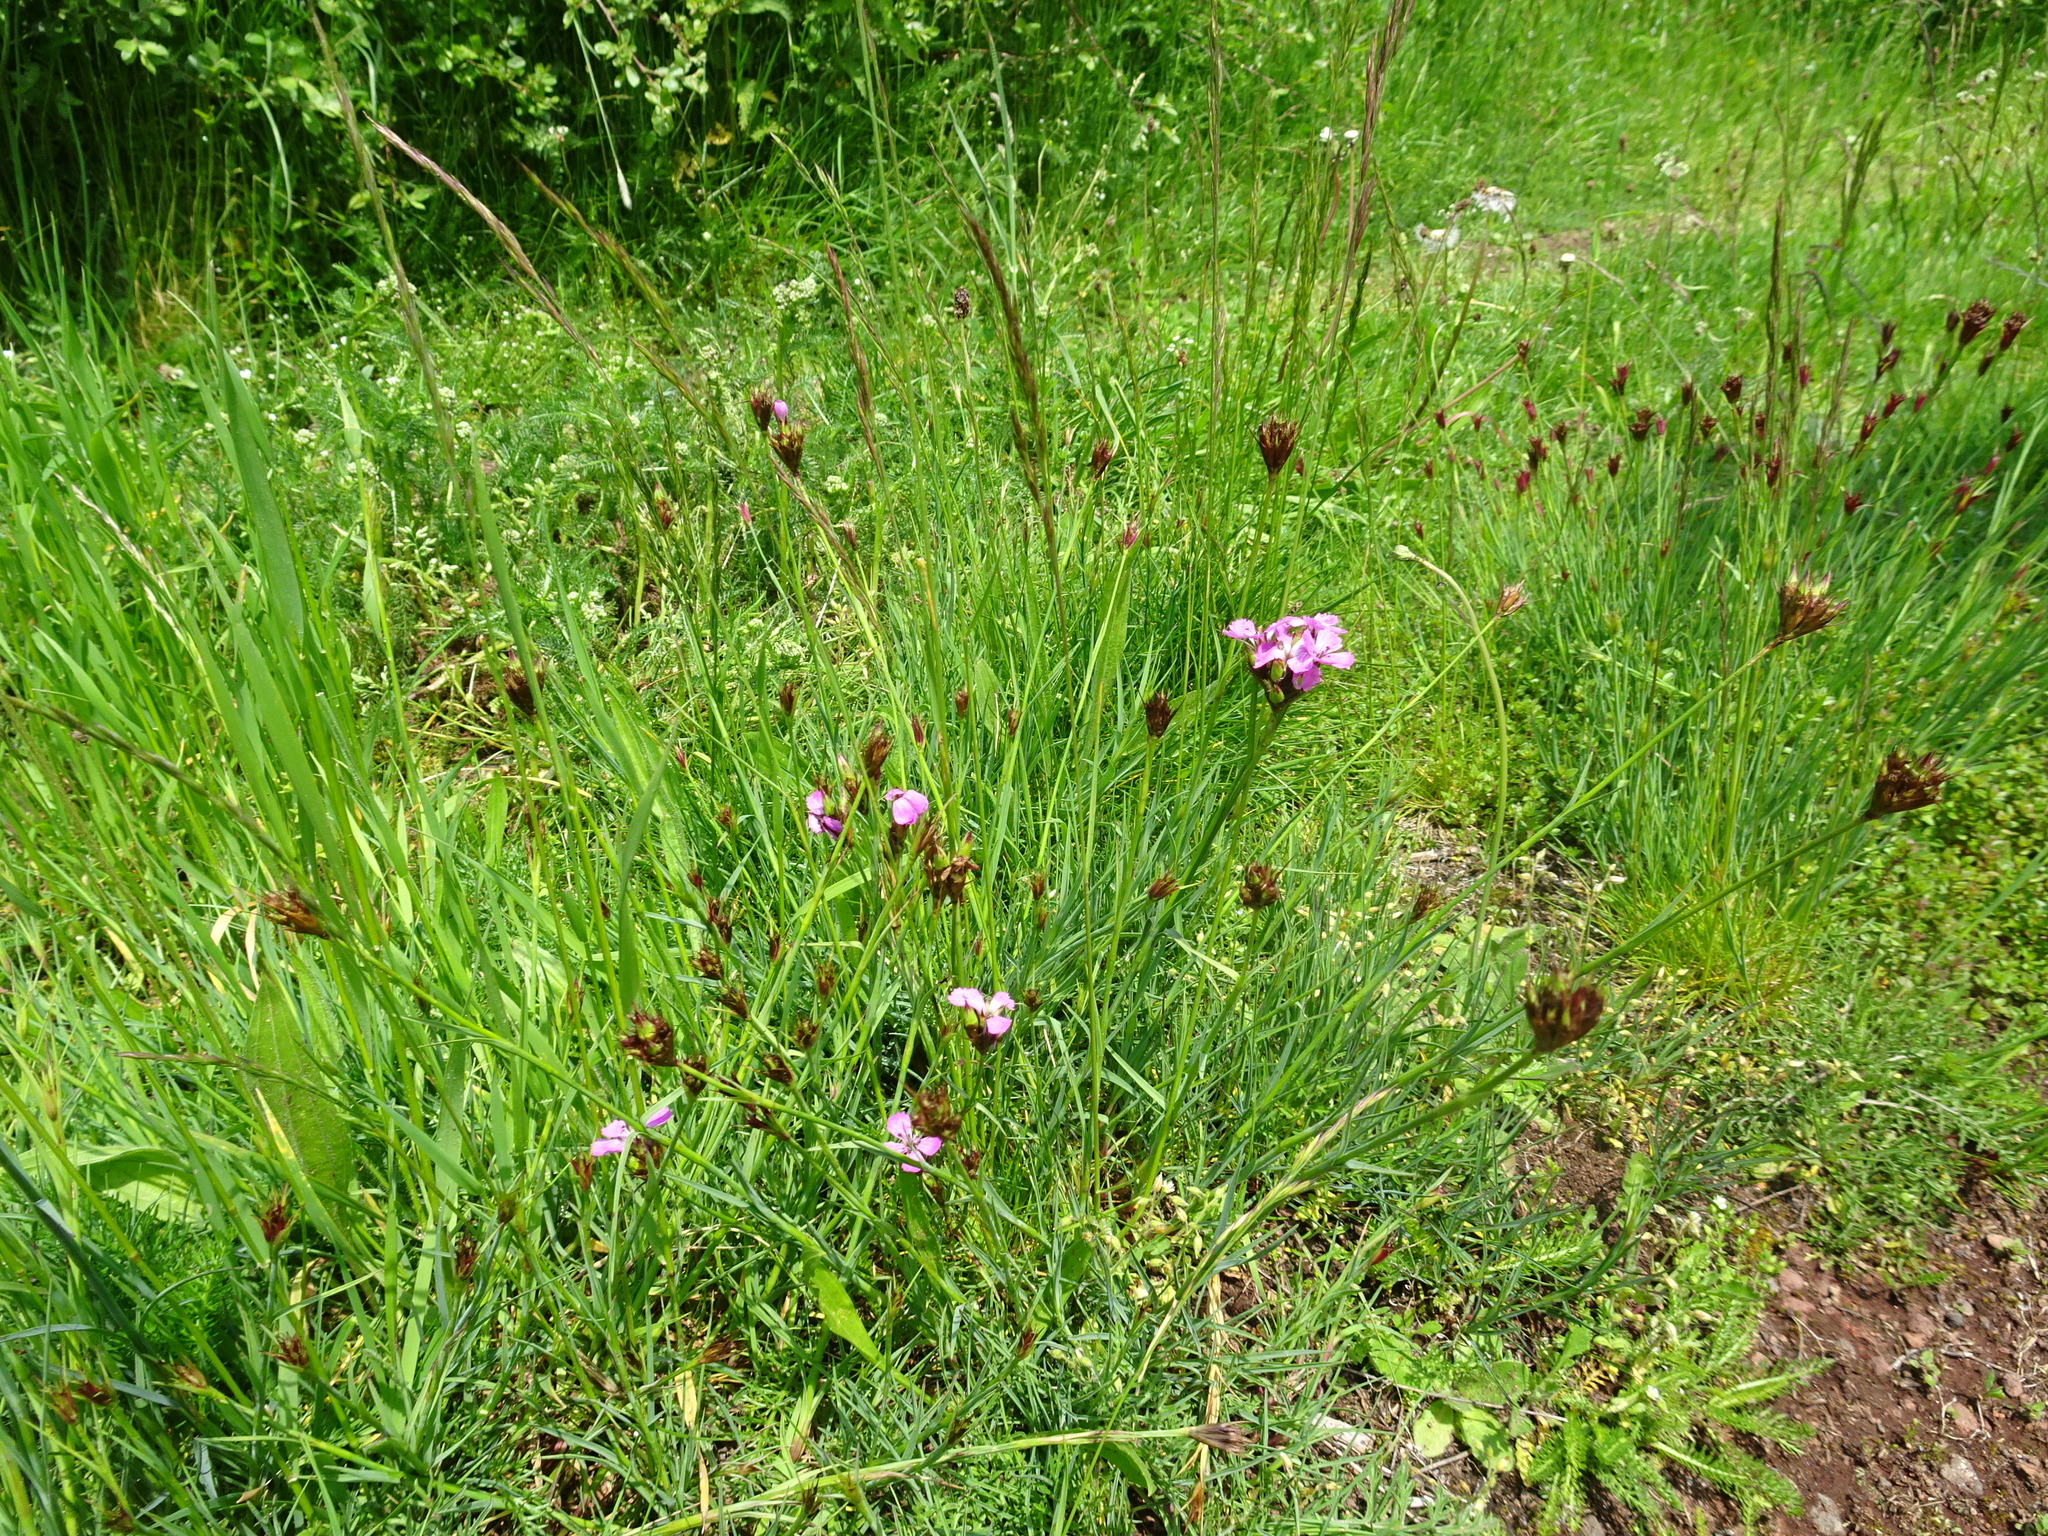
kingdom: Plantae
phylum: Tracheophyta
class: Magnoliopsida
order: Caryophyllales
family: Caryophyllaceae
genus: Dianthus
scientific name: Dianthus carthusianorum
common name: Carthusian pink
